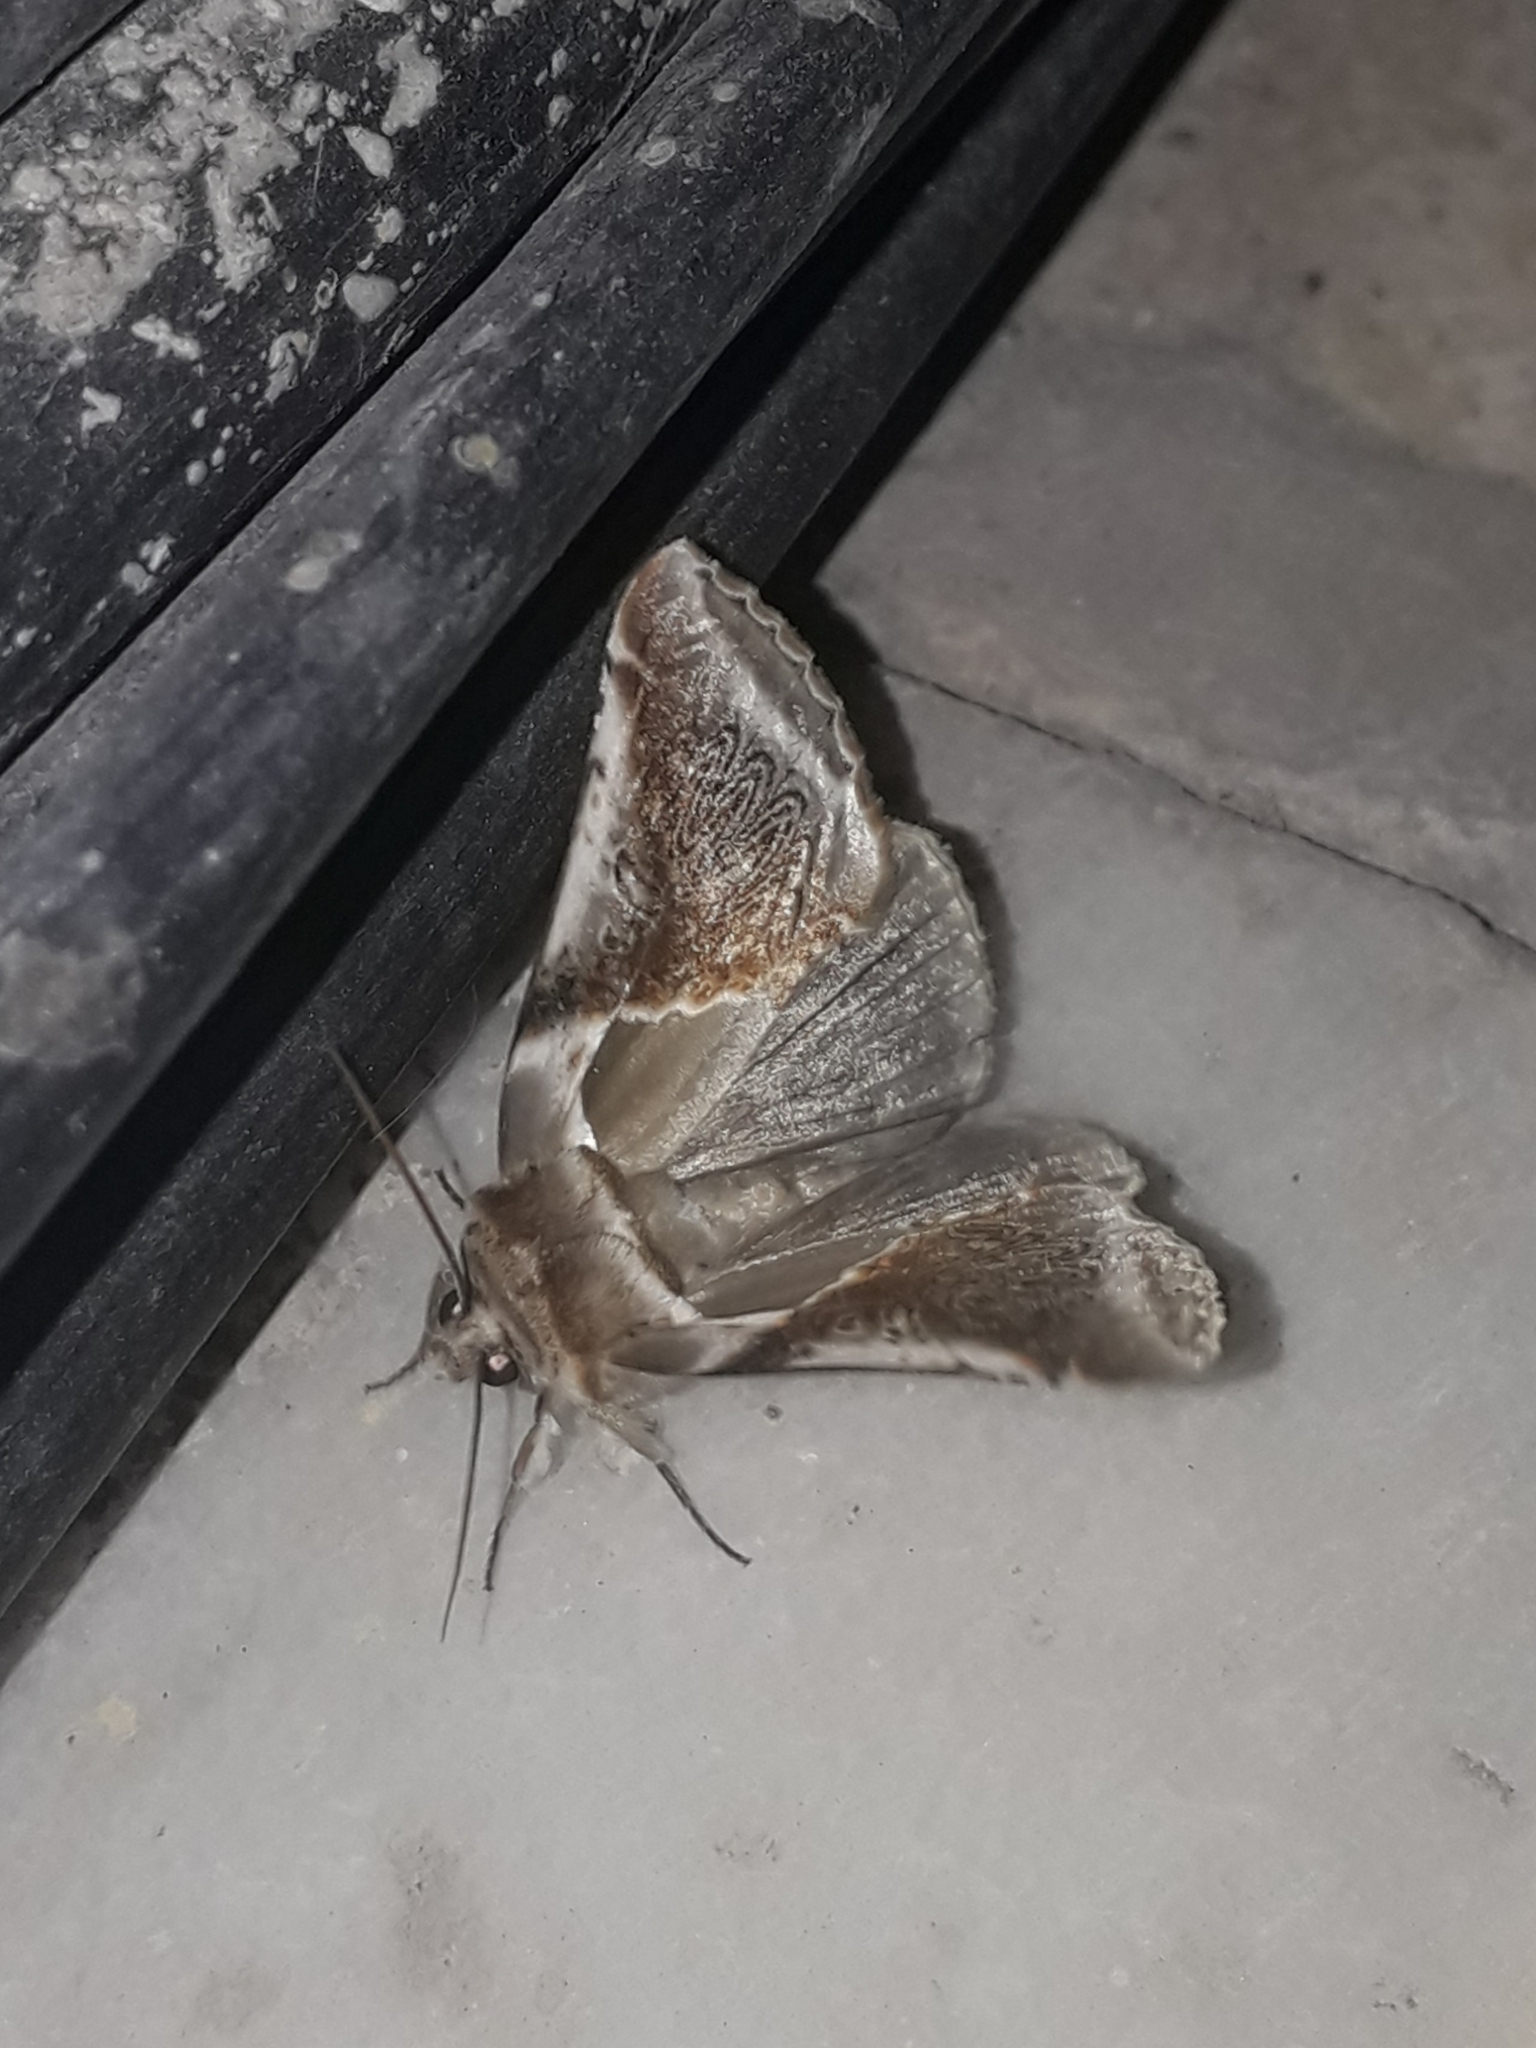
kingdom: Animalia
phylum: Arthropoda
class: Insecta
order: Lepidoptera
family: Drepanidae
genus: Habrosyne
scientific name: Habrosyne pyritoides
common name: Buff arches
